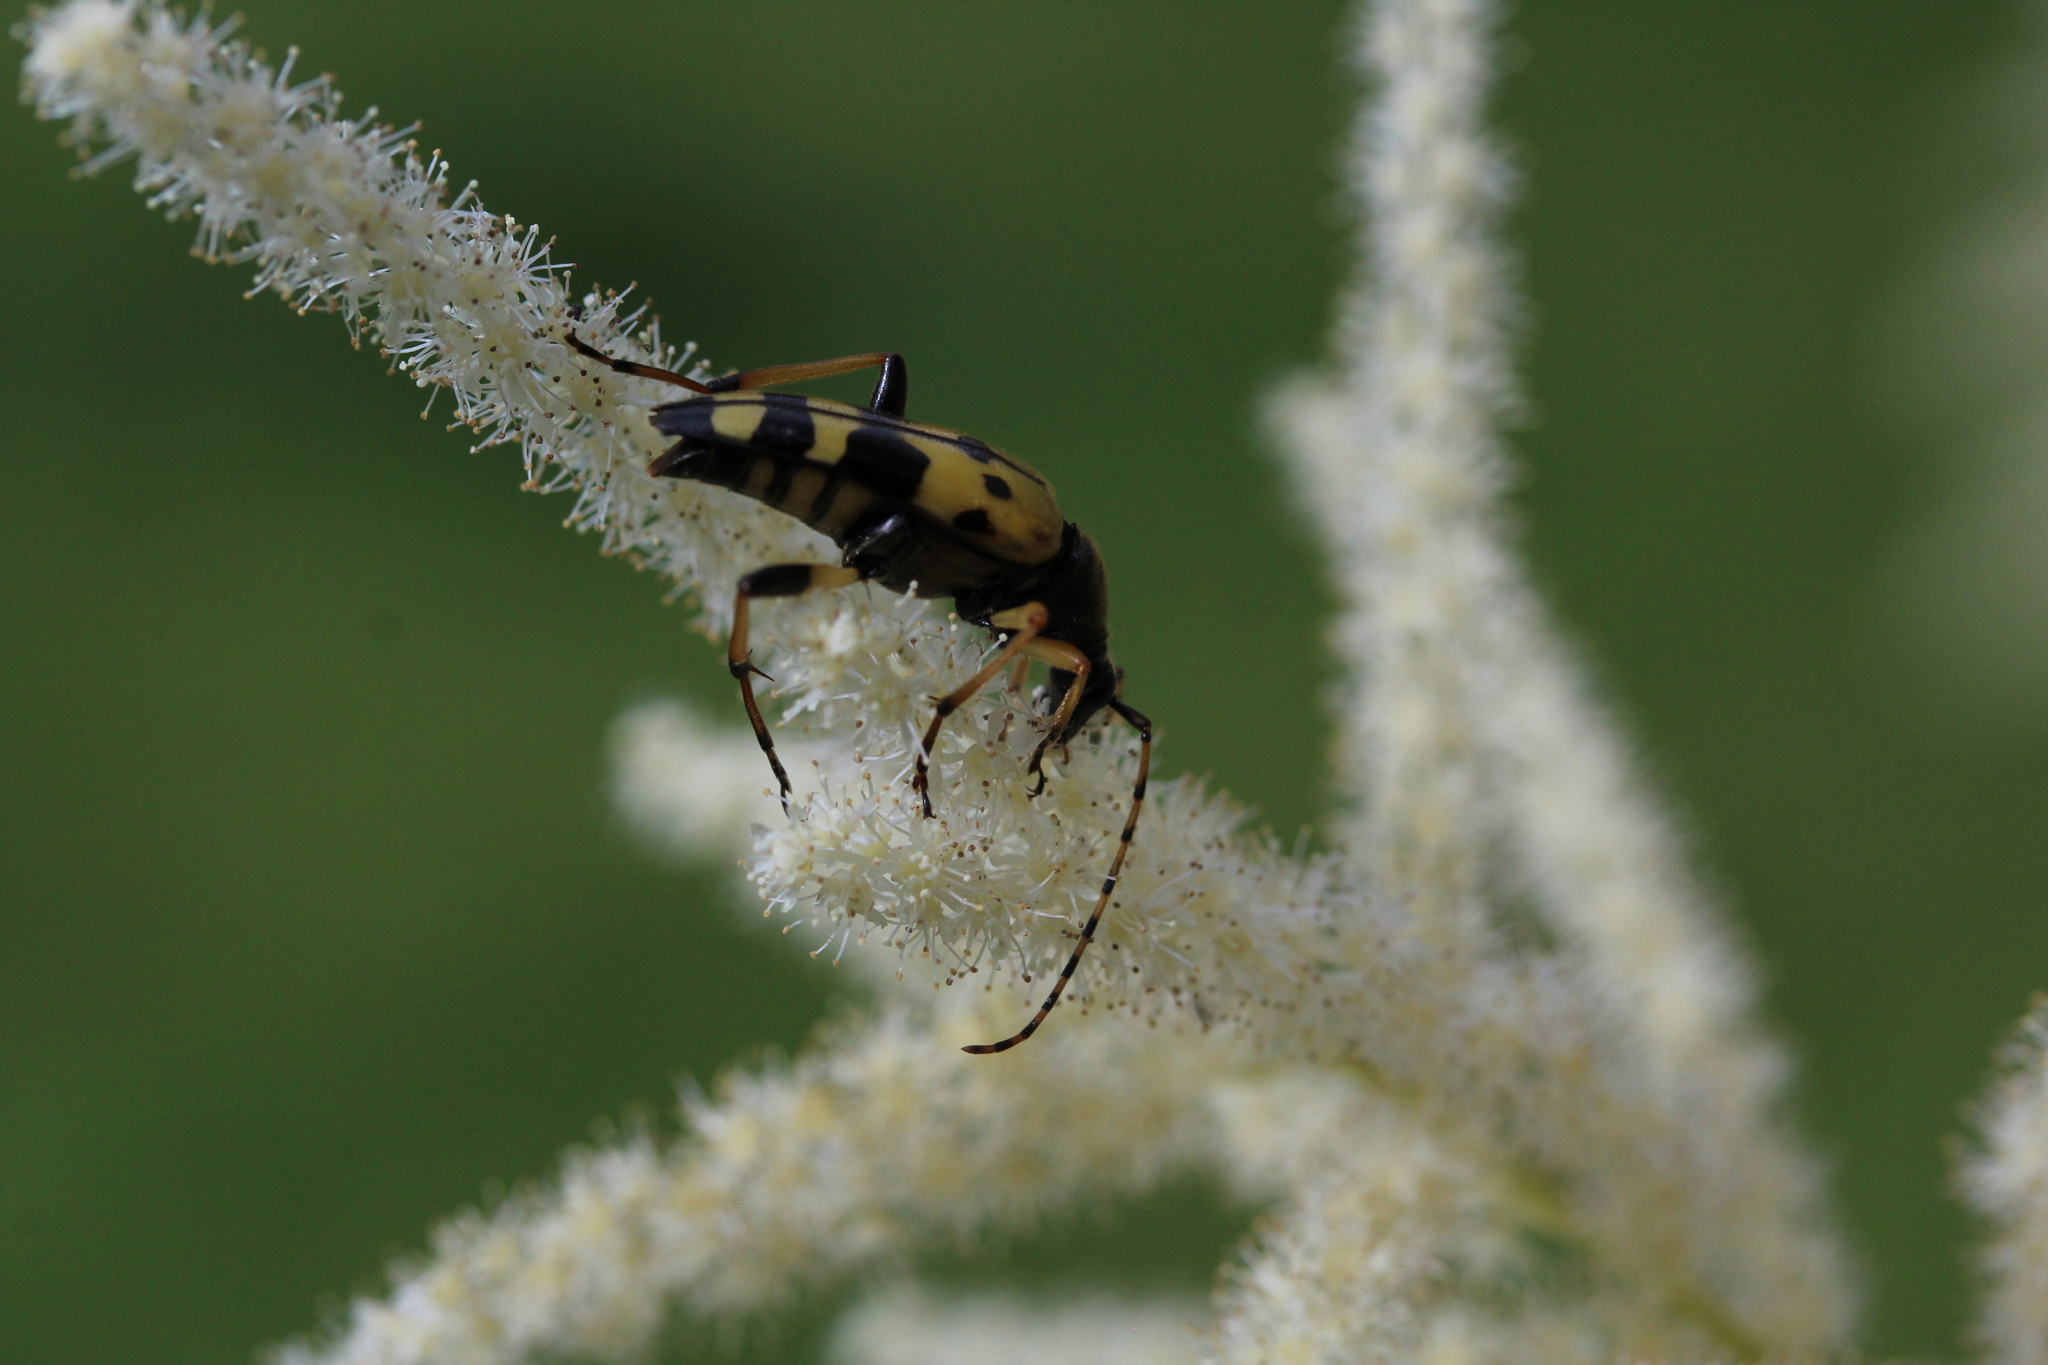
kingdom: Animalia
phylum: Arthropoda
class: Insecta
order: Coleoptera
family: Cerambycidae
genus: Rutpela
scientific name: Rutpela maculata
